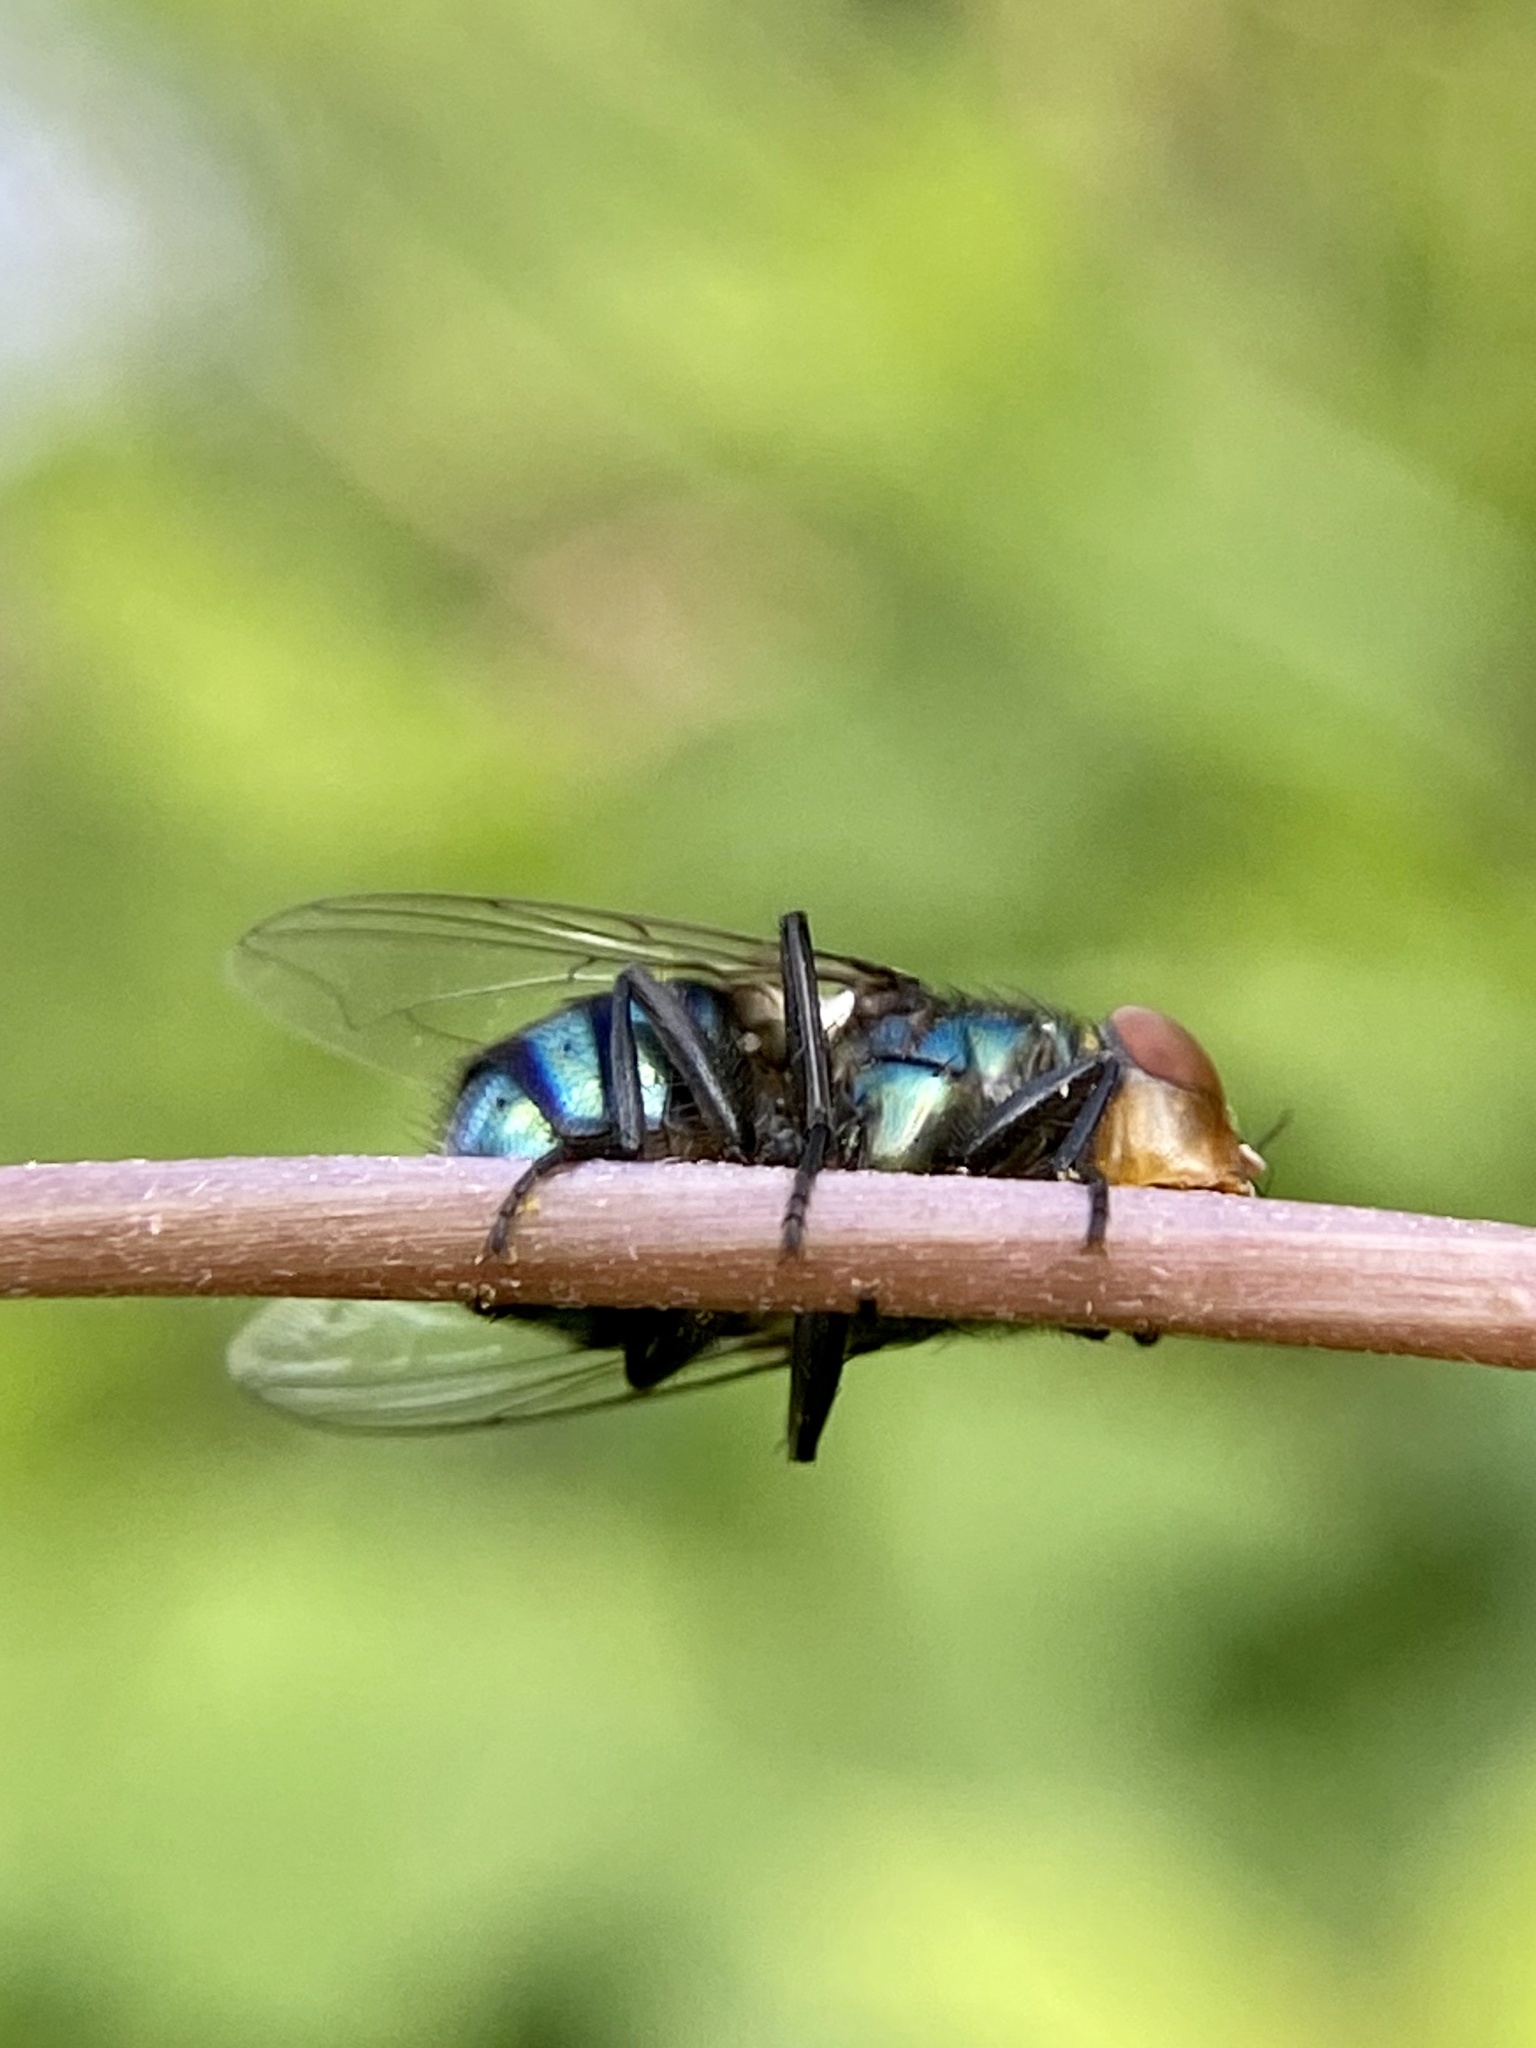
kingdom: Animalia
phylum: Arthropoda
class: Insecta
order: Diptera
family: Calliphoridae
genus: Chrysomya
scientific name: Chrysomya megacephala
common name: Blow fly
